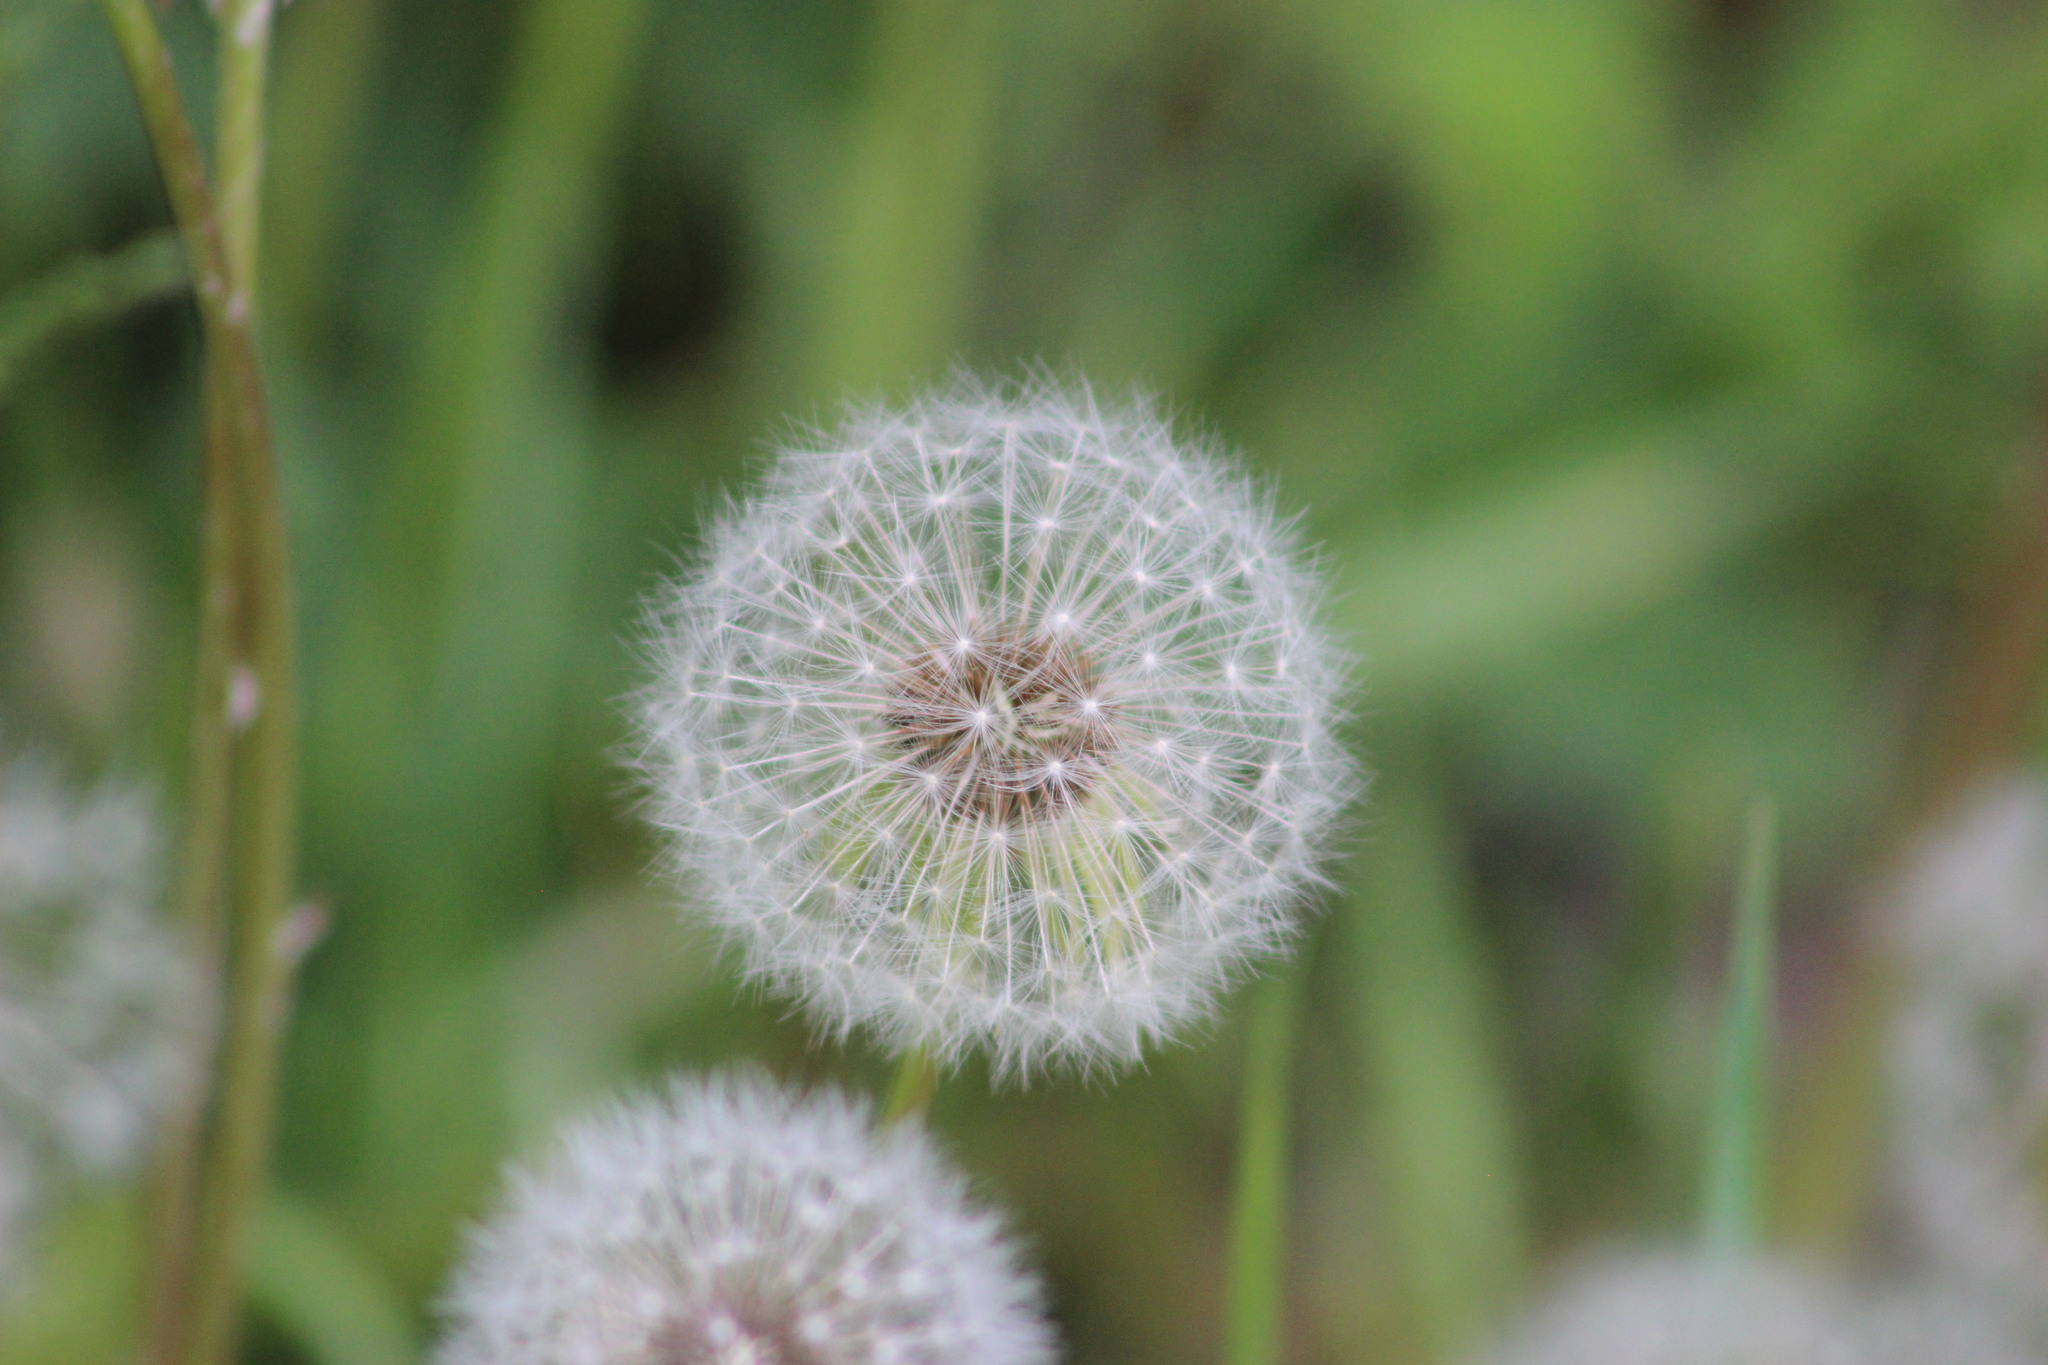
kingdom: Plantae
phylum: Tracheophyta
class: Magnoliopsida
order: Asterales
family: Asteraceae
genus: Taraxacum
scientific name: Taraxacum officinale
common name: Common dandelion
